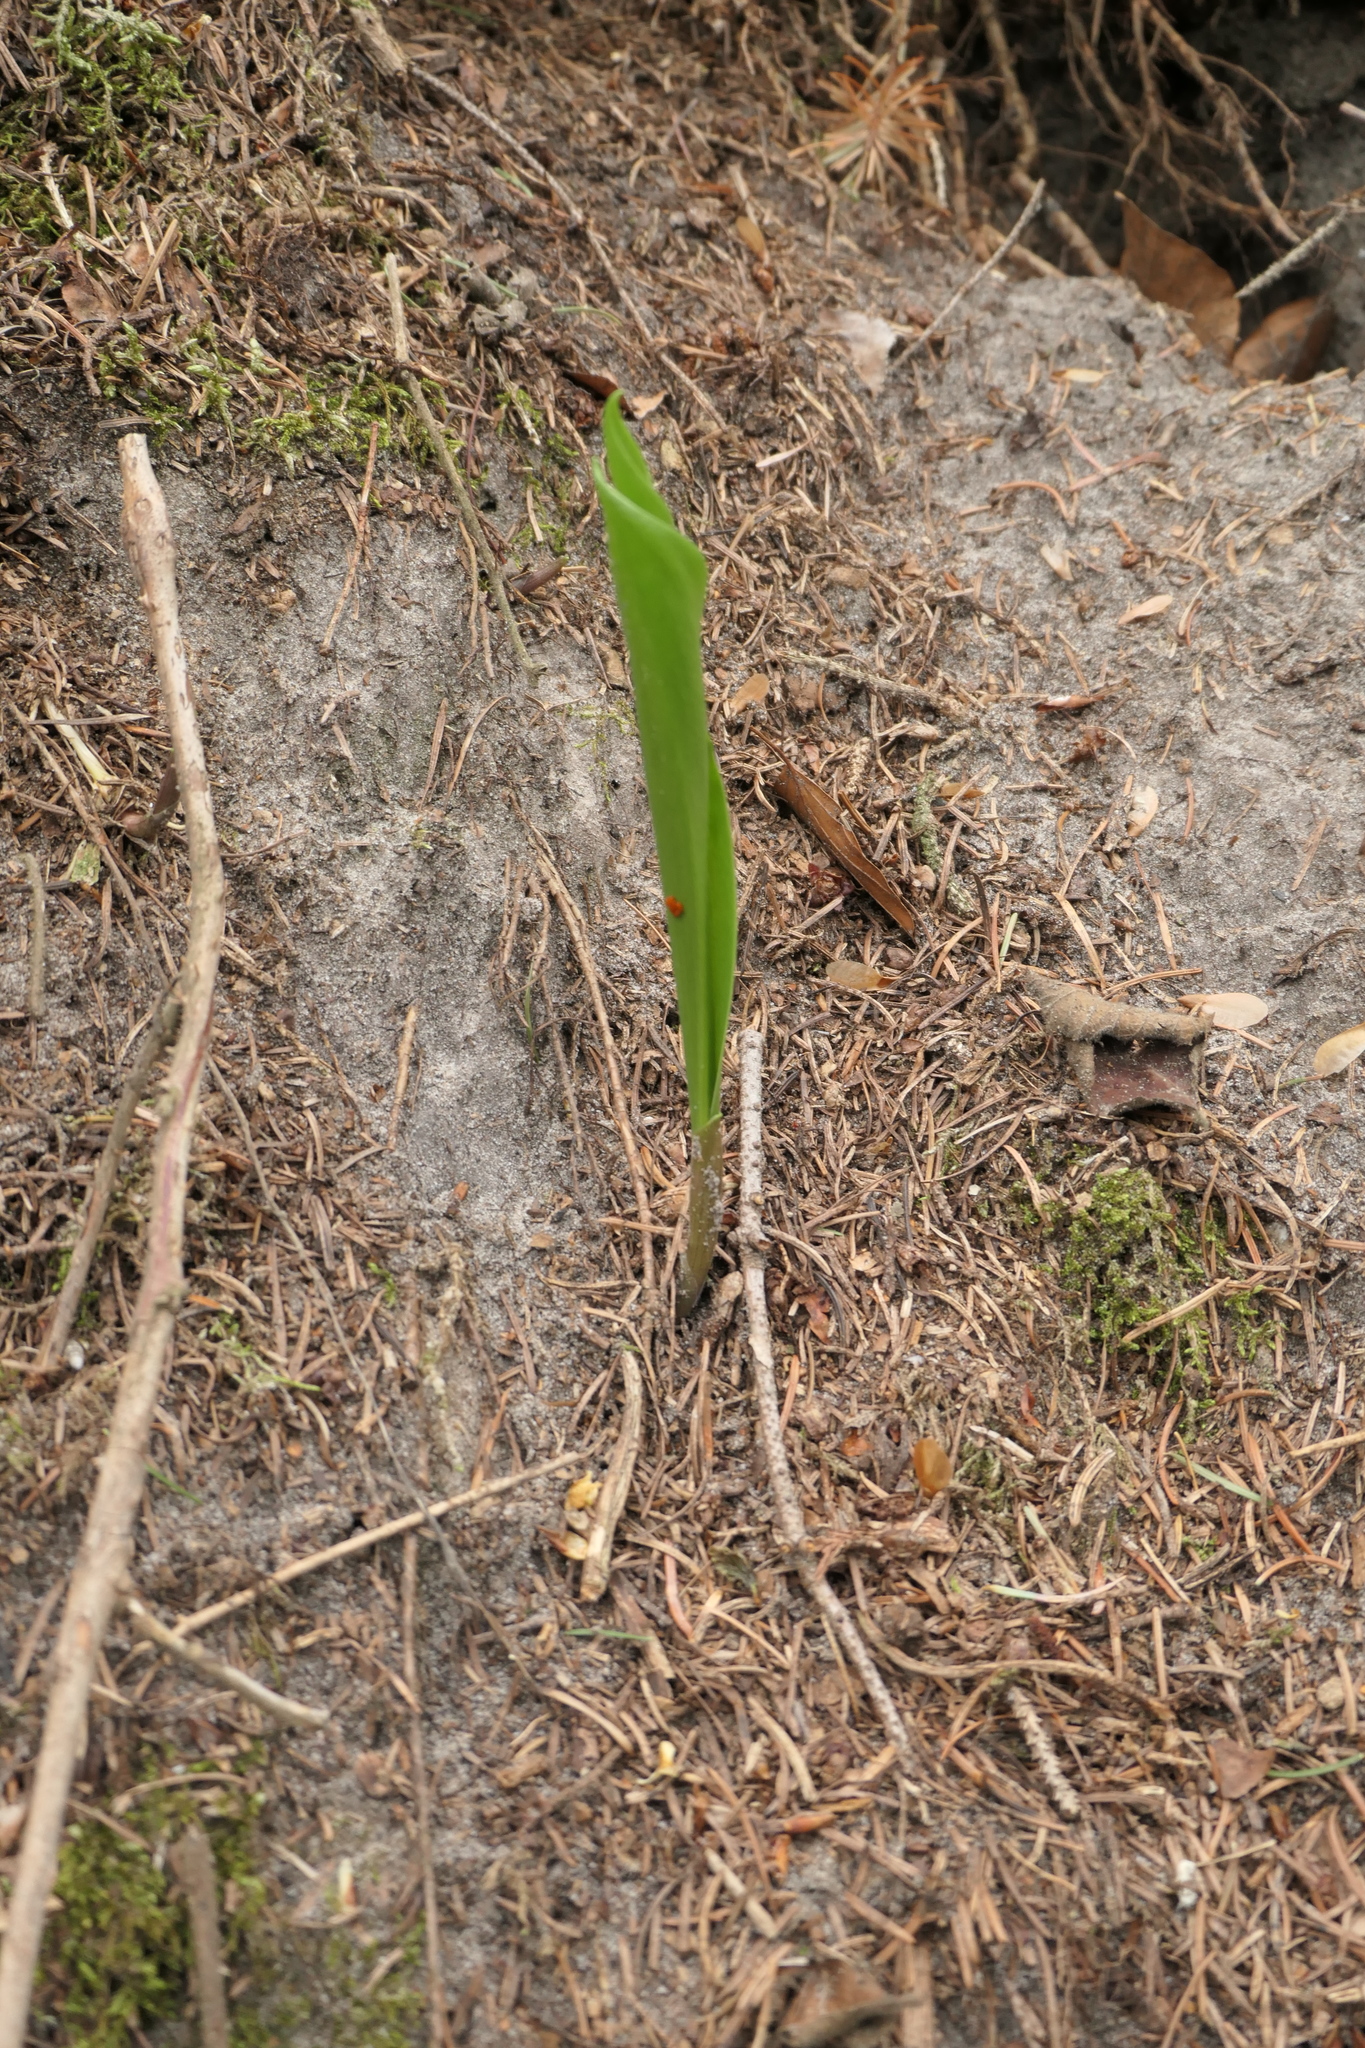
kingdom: Plantae
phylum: Tracheophyta
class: Liliopsida
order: Asparagales
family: Asparagaceae
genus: Convallaria
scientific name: Convallaria majalis
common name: Lily-of-the-valley
